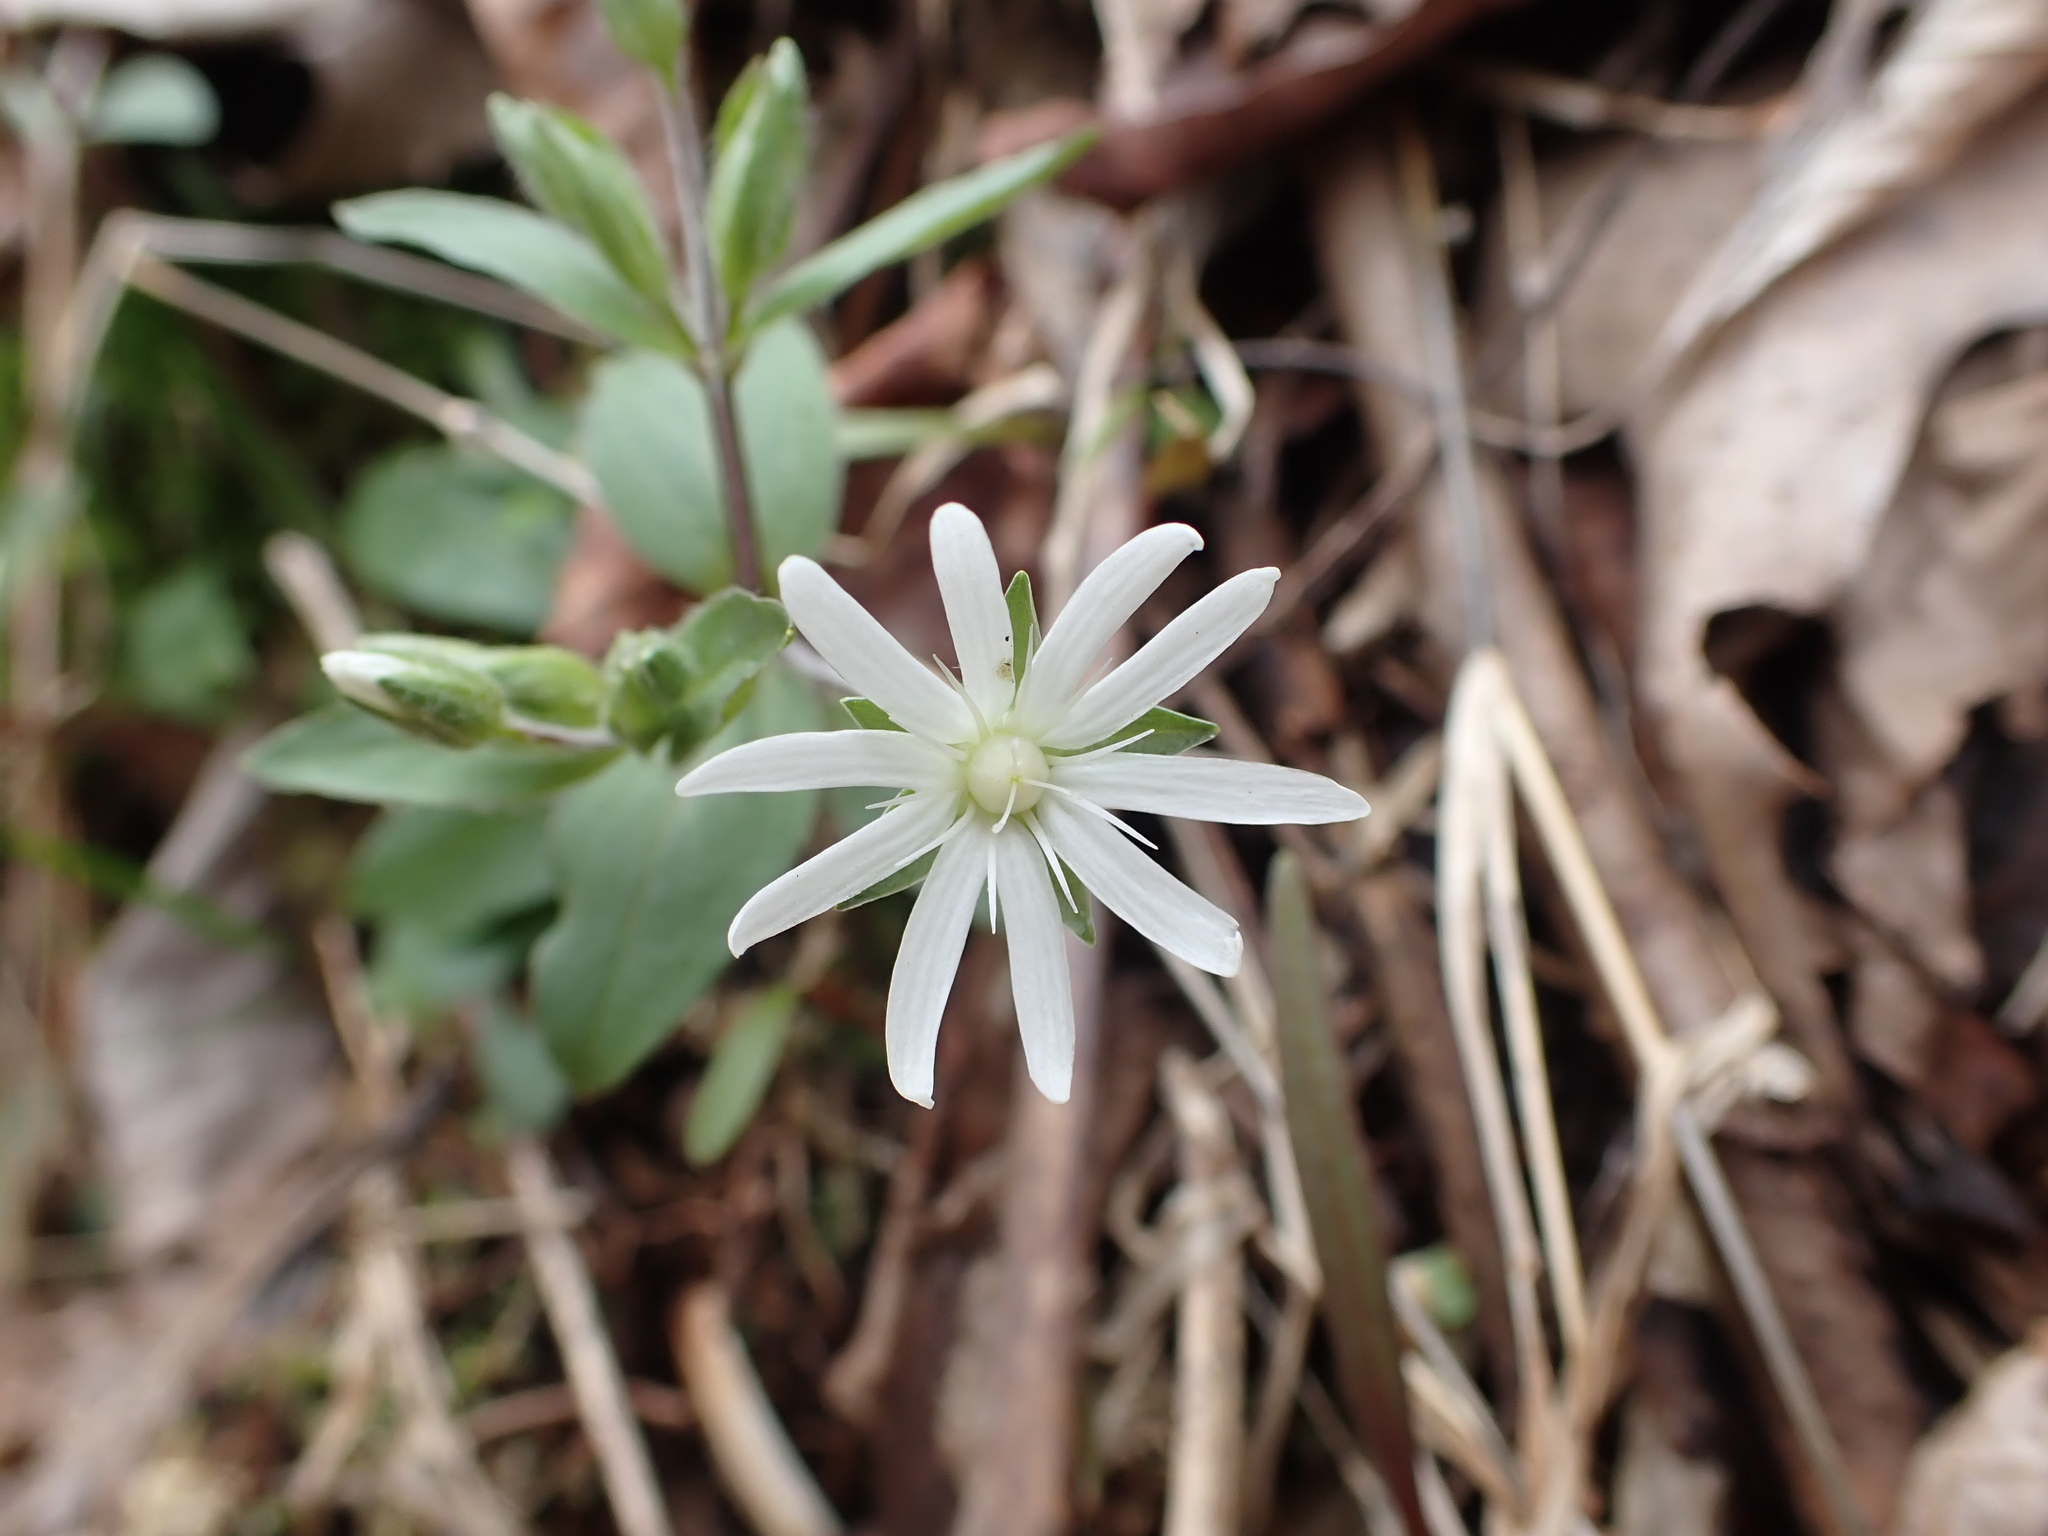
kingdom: Plantae
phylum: Tracheophyta
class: Magnoliopsida
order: Caryophyllales
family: Caryophyllaceae
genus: Stellaria
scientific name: Stellaria pubera
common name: Star chickweed
